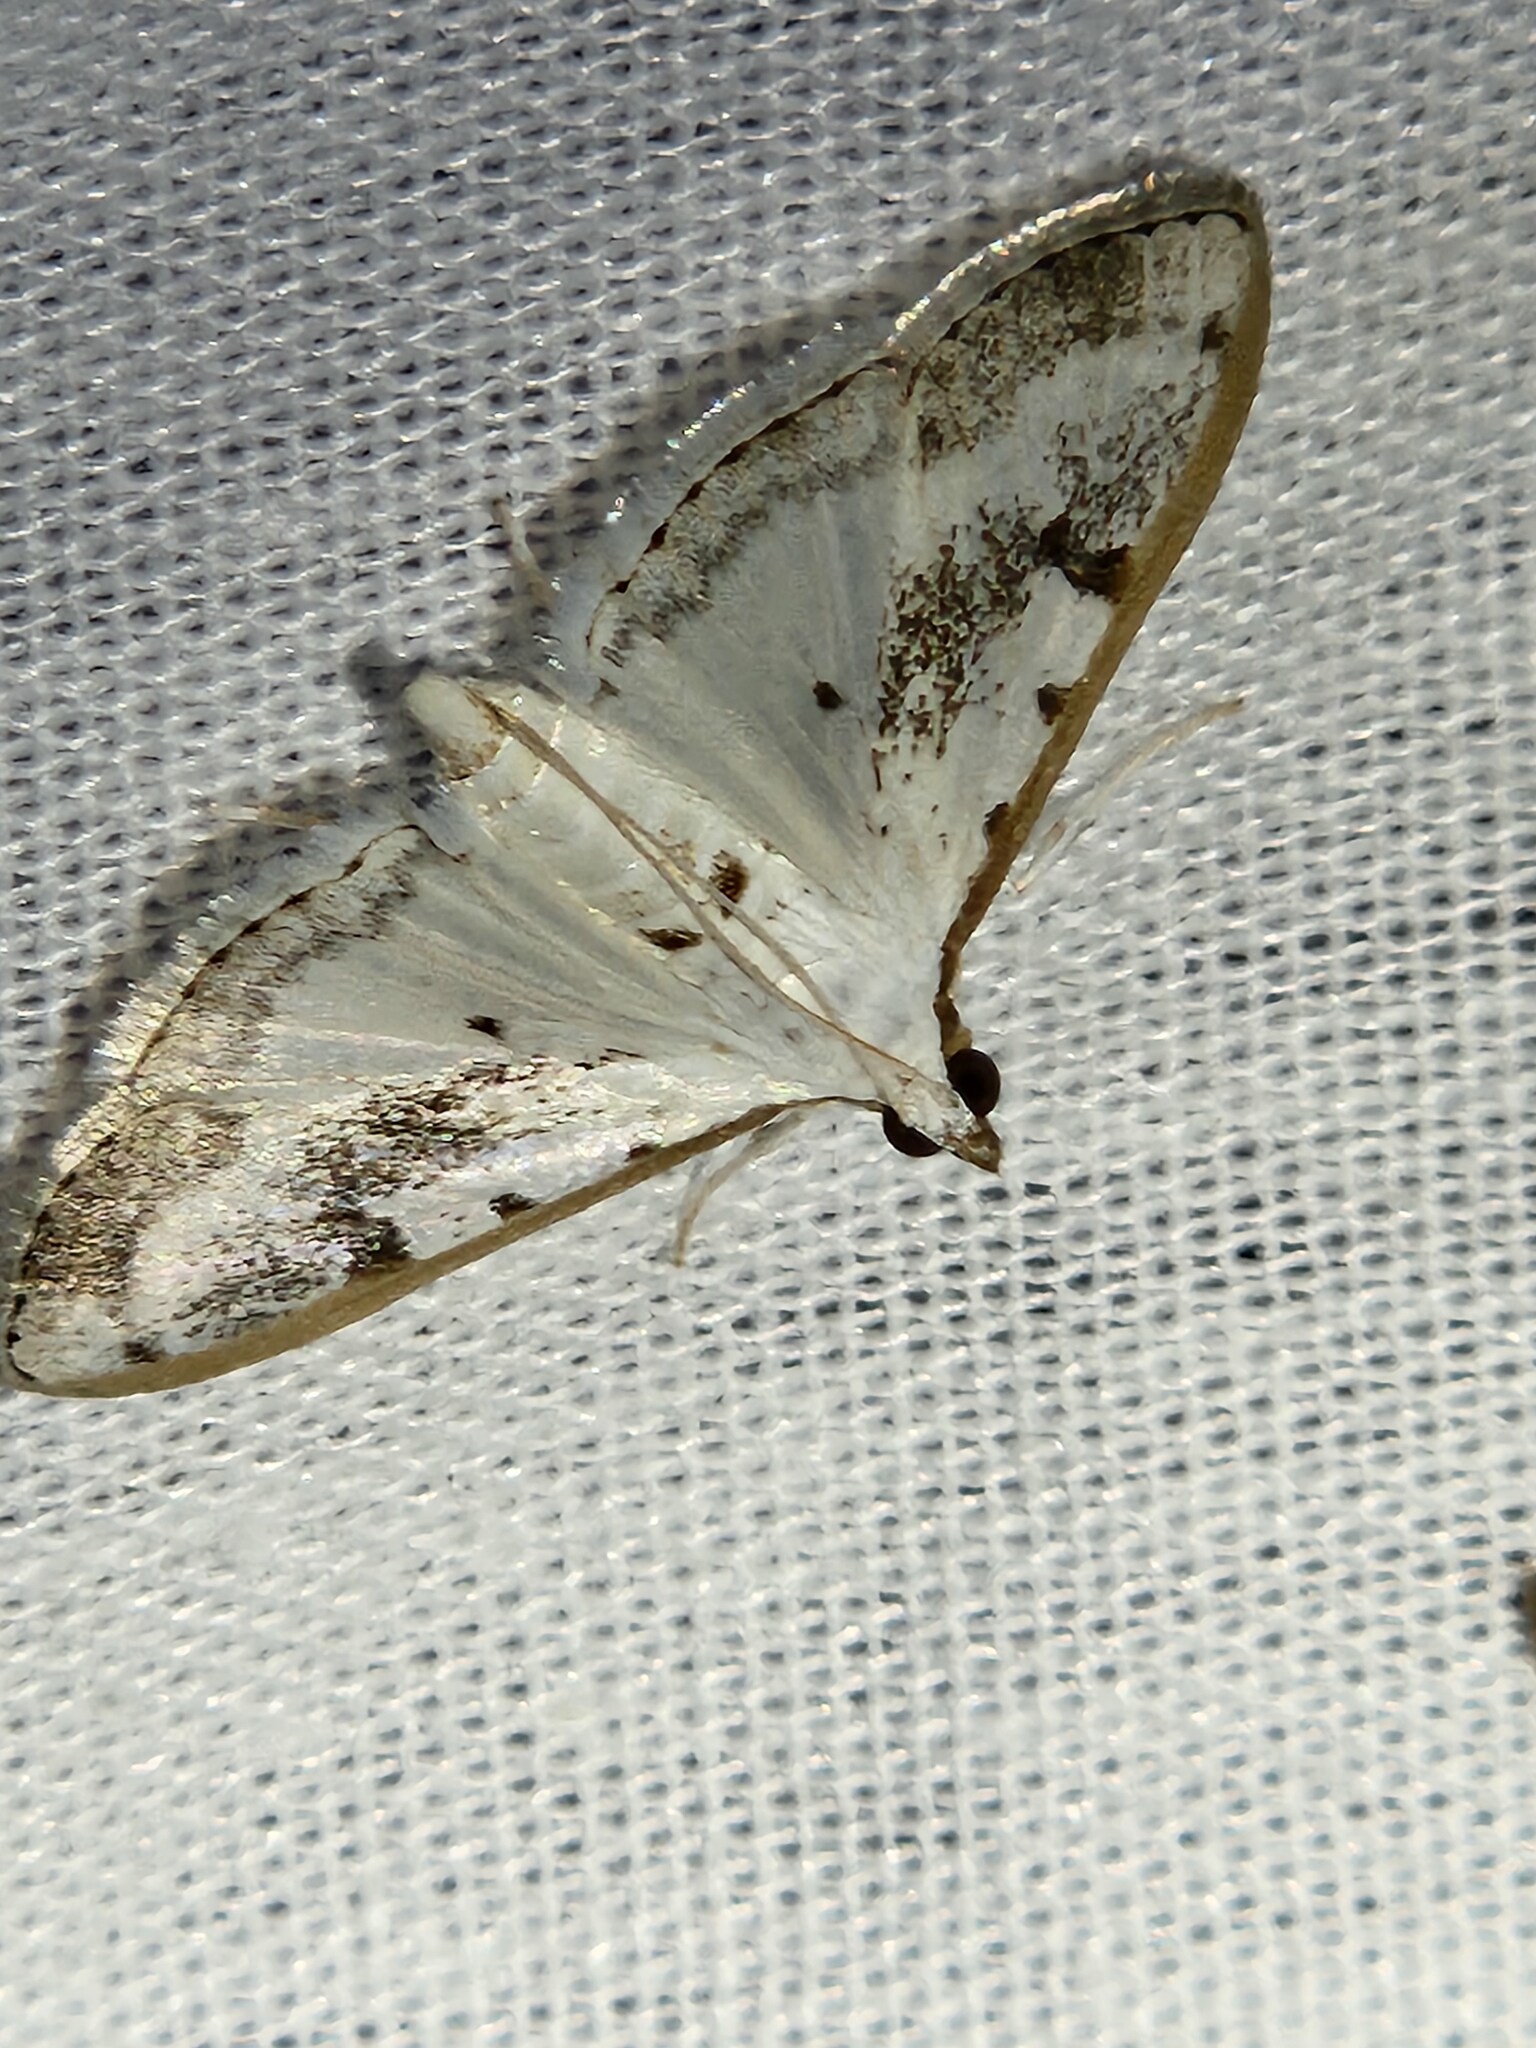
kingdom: Animalia
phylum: Arthropoda
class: Insecta
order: Lepidoptera
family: Crambidae
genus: Palpita
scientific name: Palpita gracilalis
